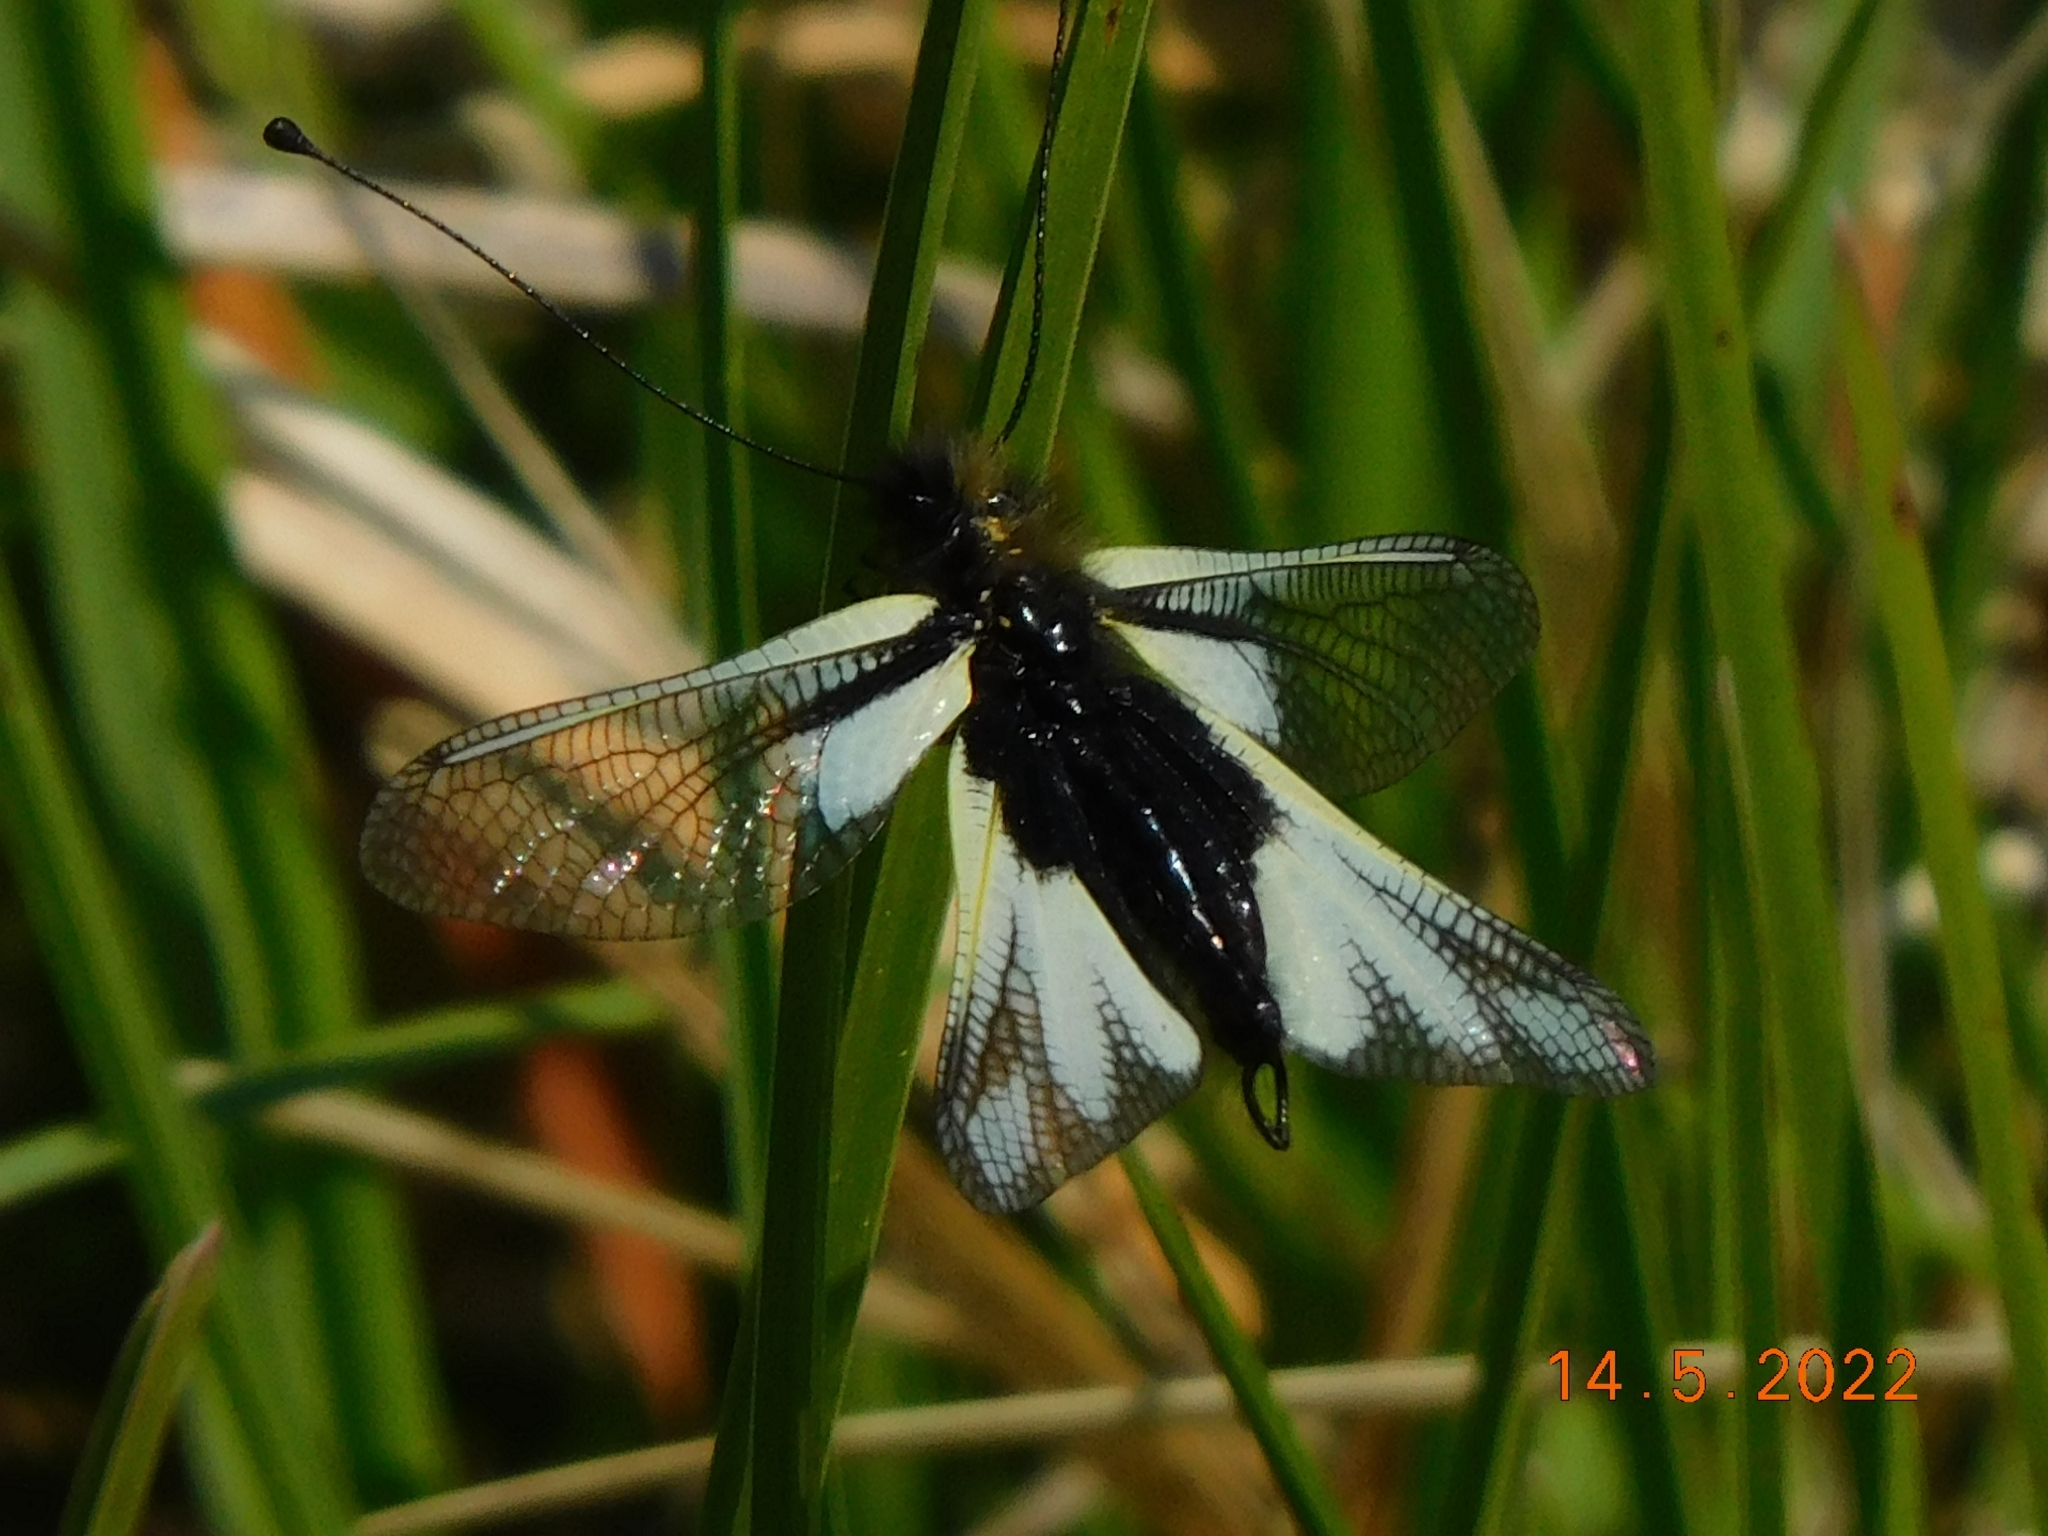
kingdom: Animalia
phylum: Arthropoda
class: Insecta
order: Neuroptera
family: Ascalaphidae
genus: Libelloides
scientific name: Libelloides coccajus
